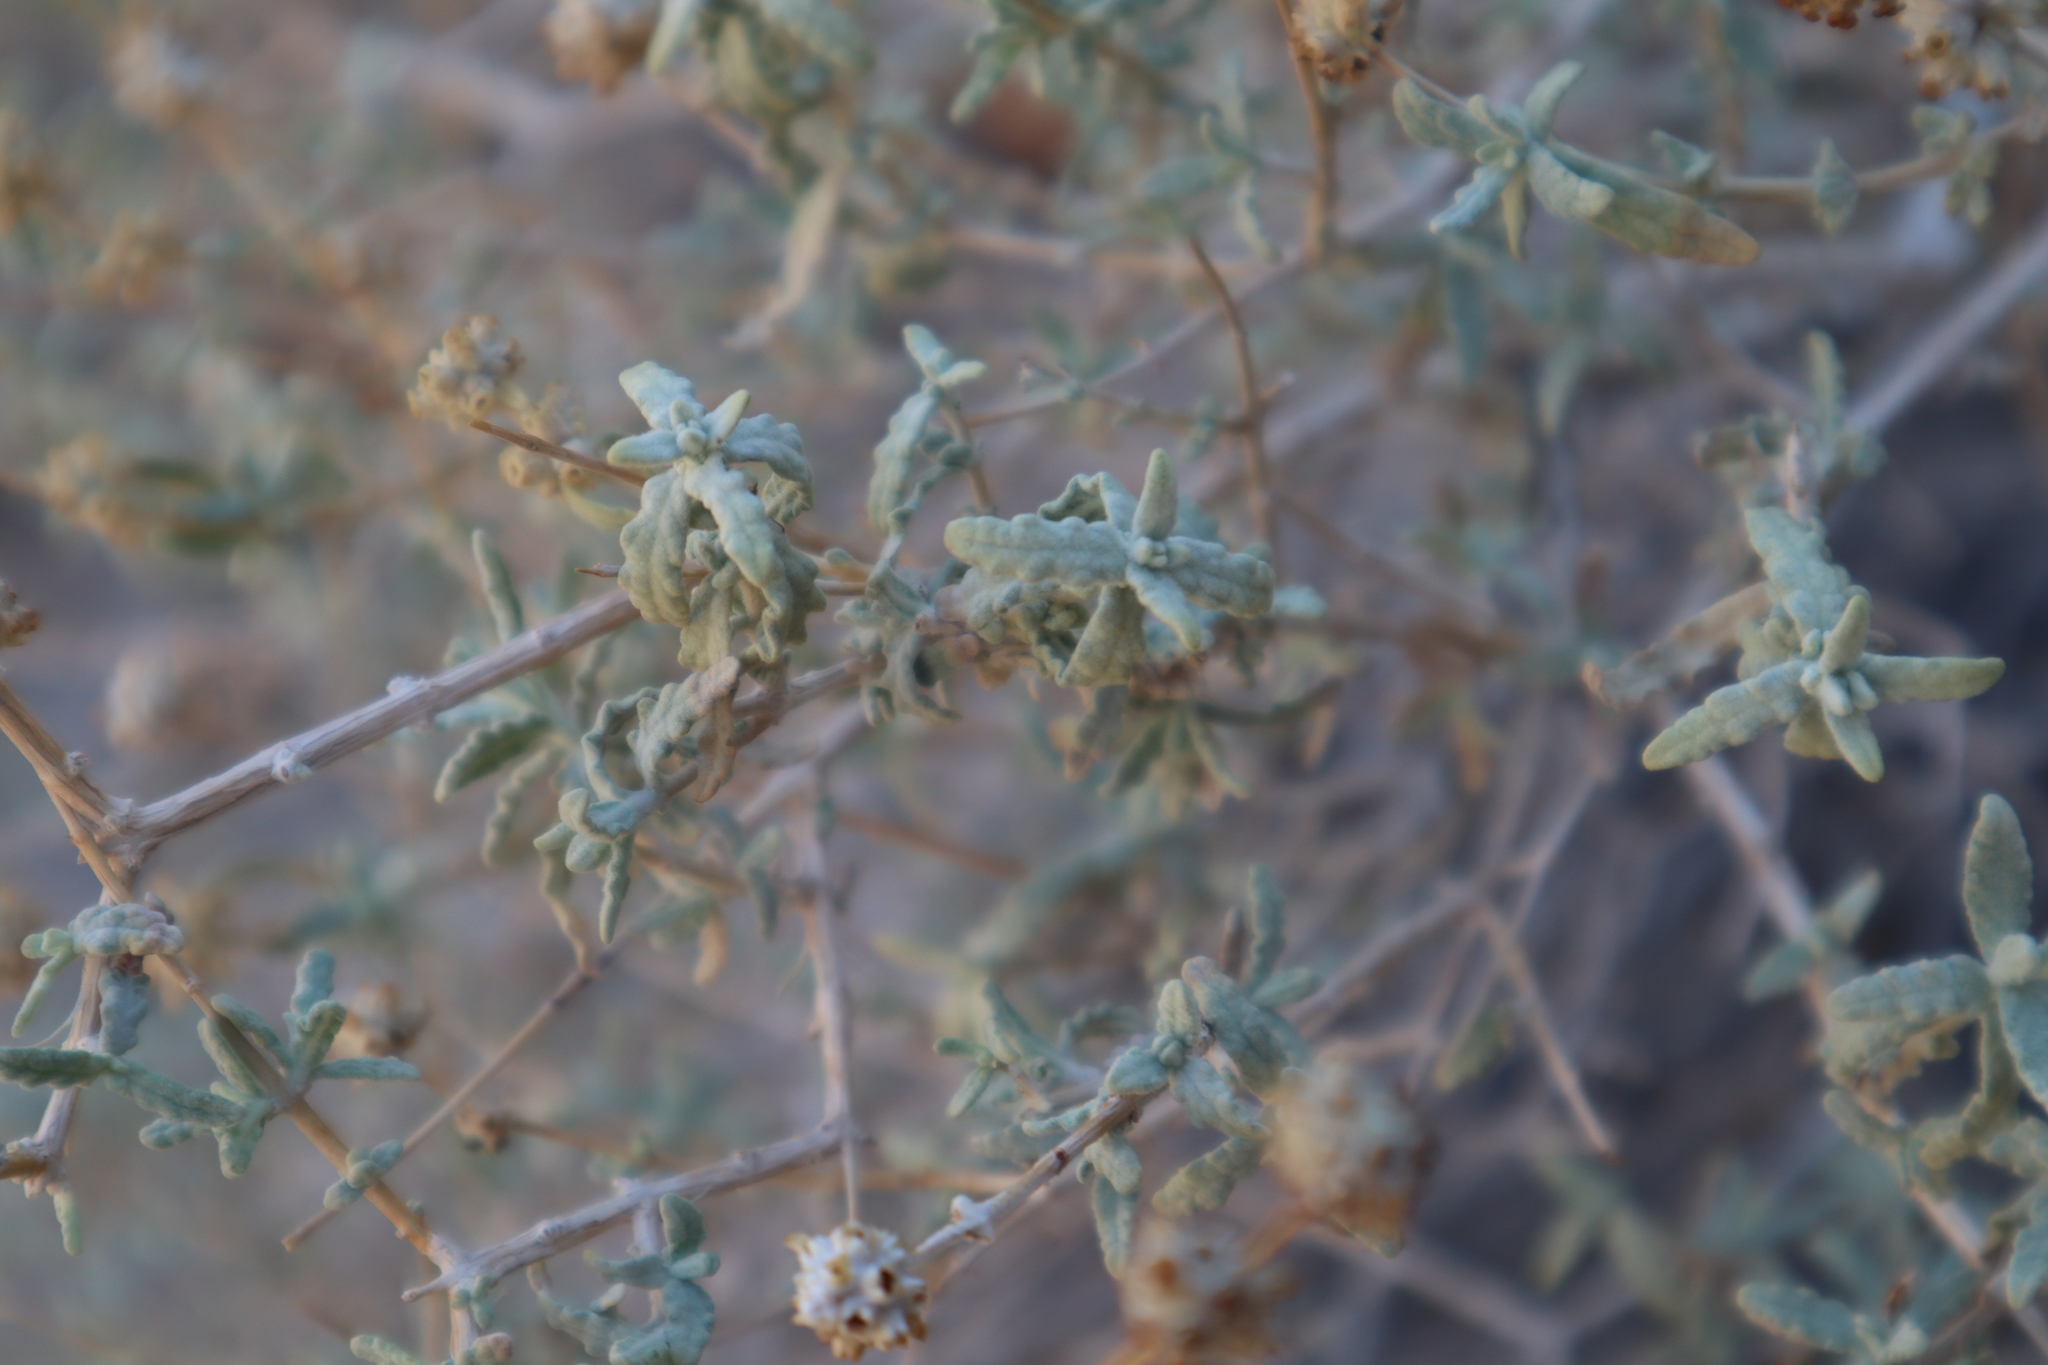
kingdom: Plantae
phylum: Tracheophyta
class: Magnoliopsida
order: Lamiales
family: Scrophulariaceae
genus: Buddleja
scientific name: Buddleja utahensis
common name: Utah butterfly-bush
